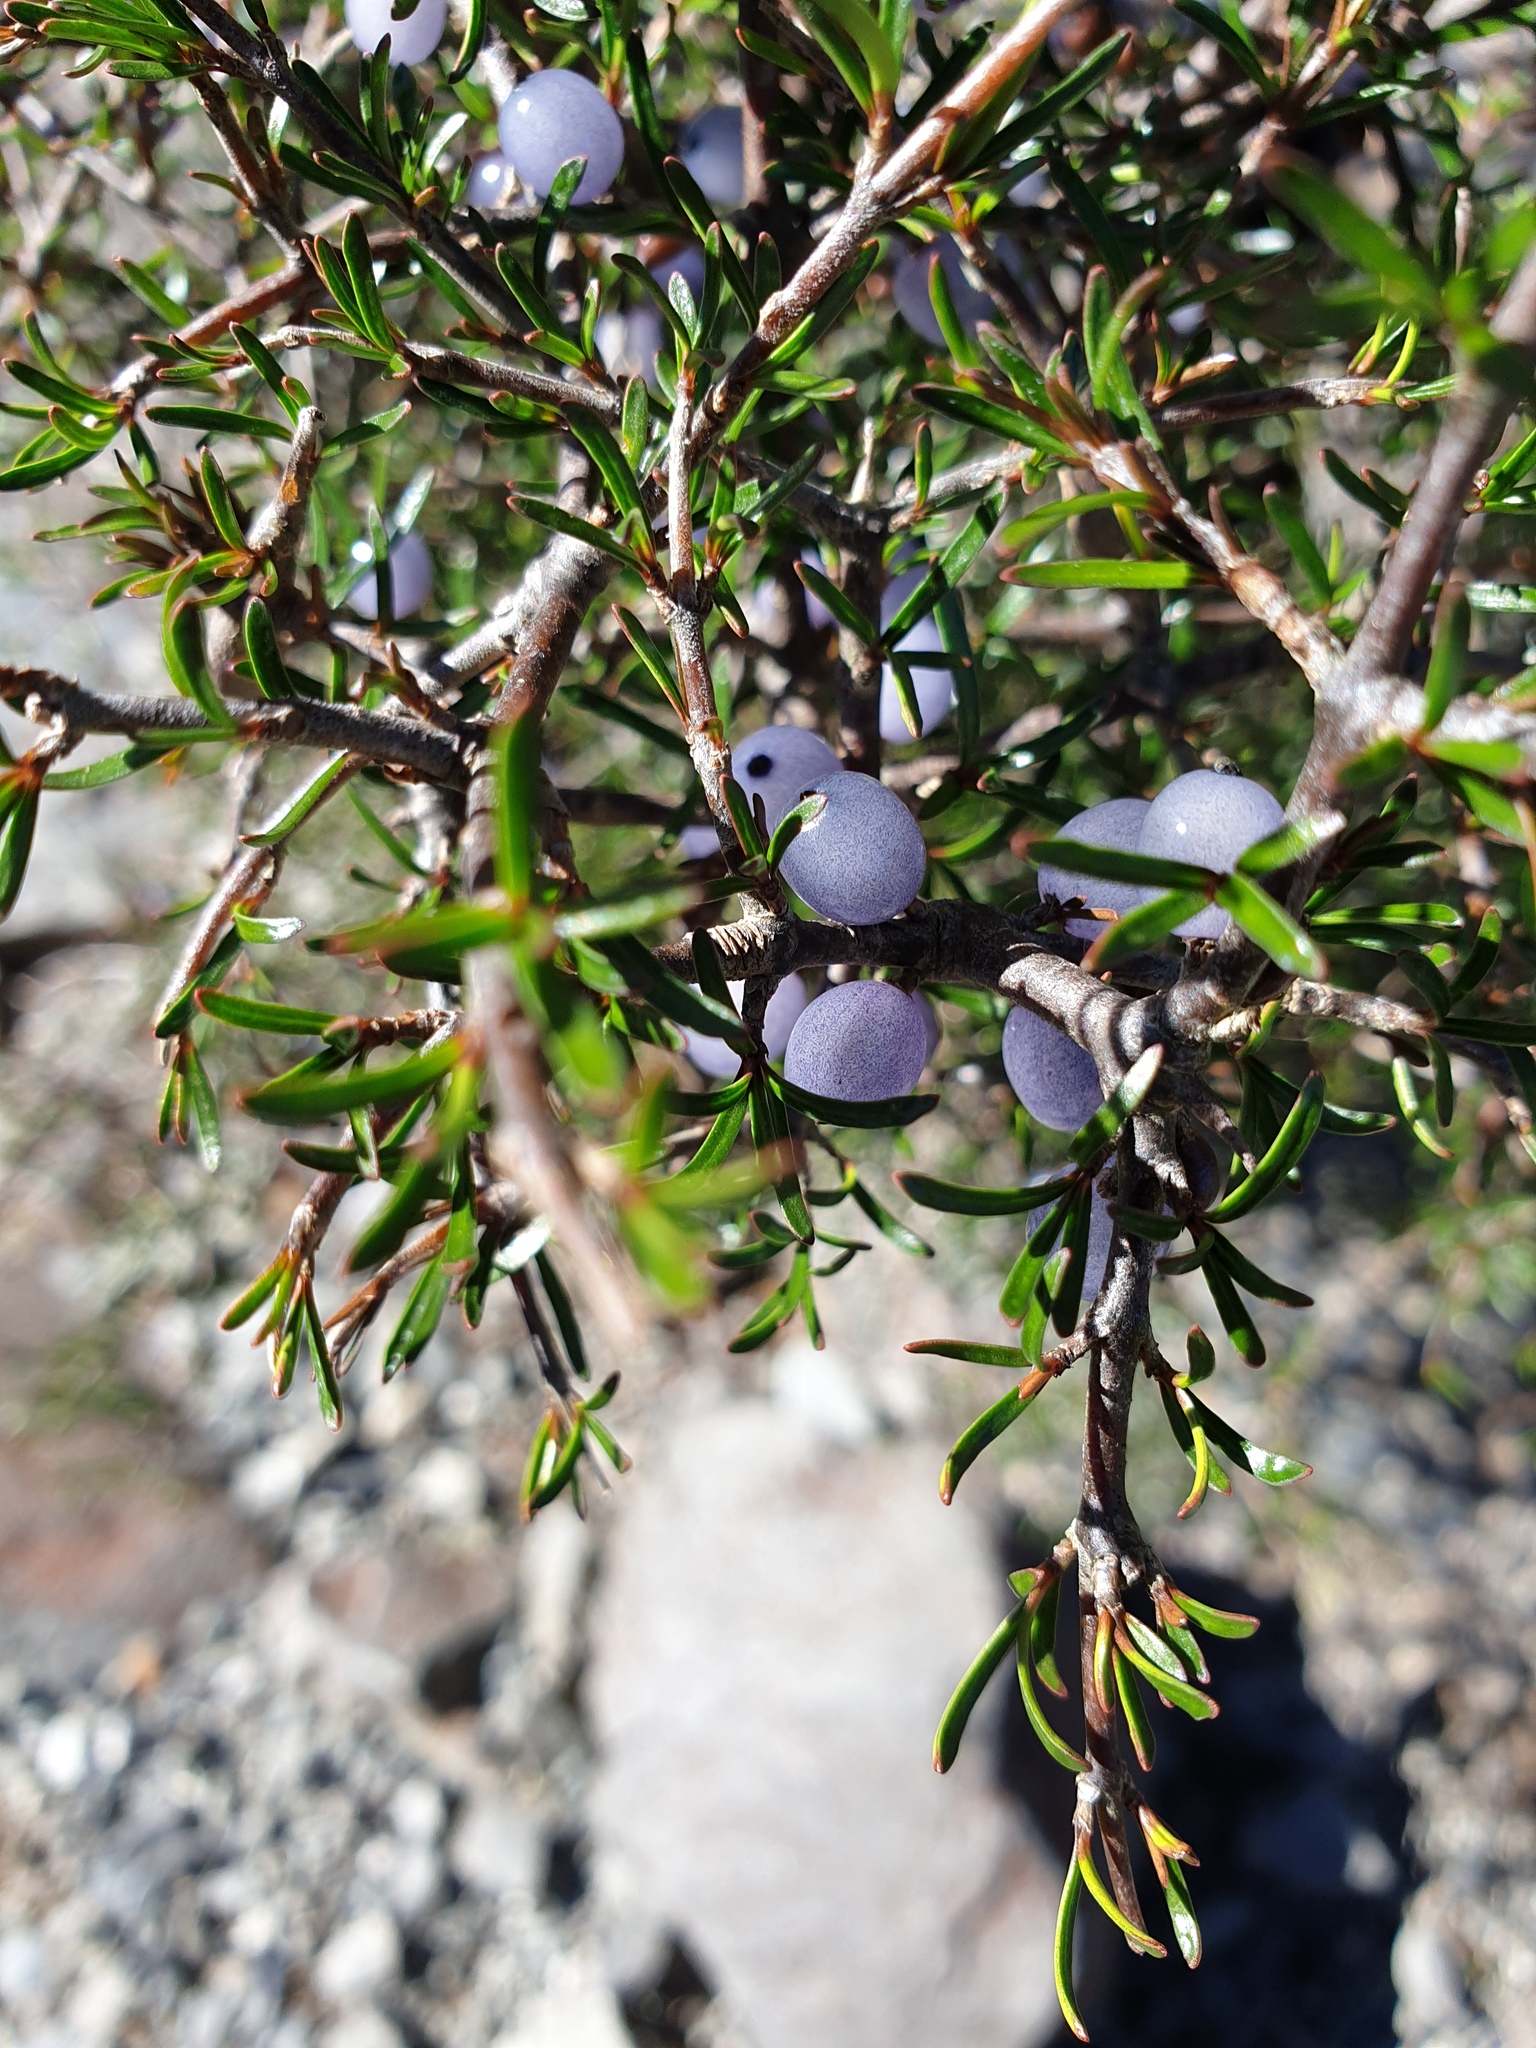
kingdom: Plantae
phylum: Tracheophyta
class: Magnoliopsida
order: Gentianales
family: Rubiaceae
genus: Coprosma
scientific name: Coprosma rugosa
